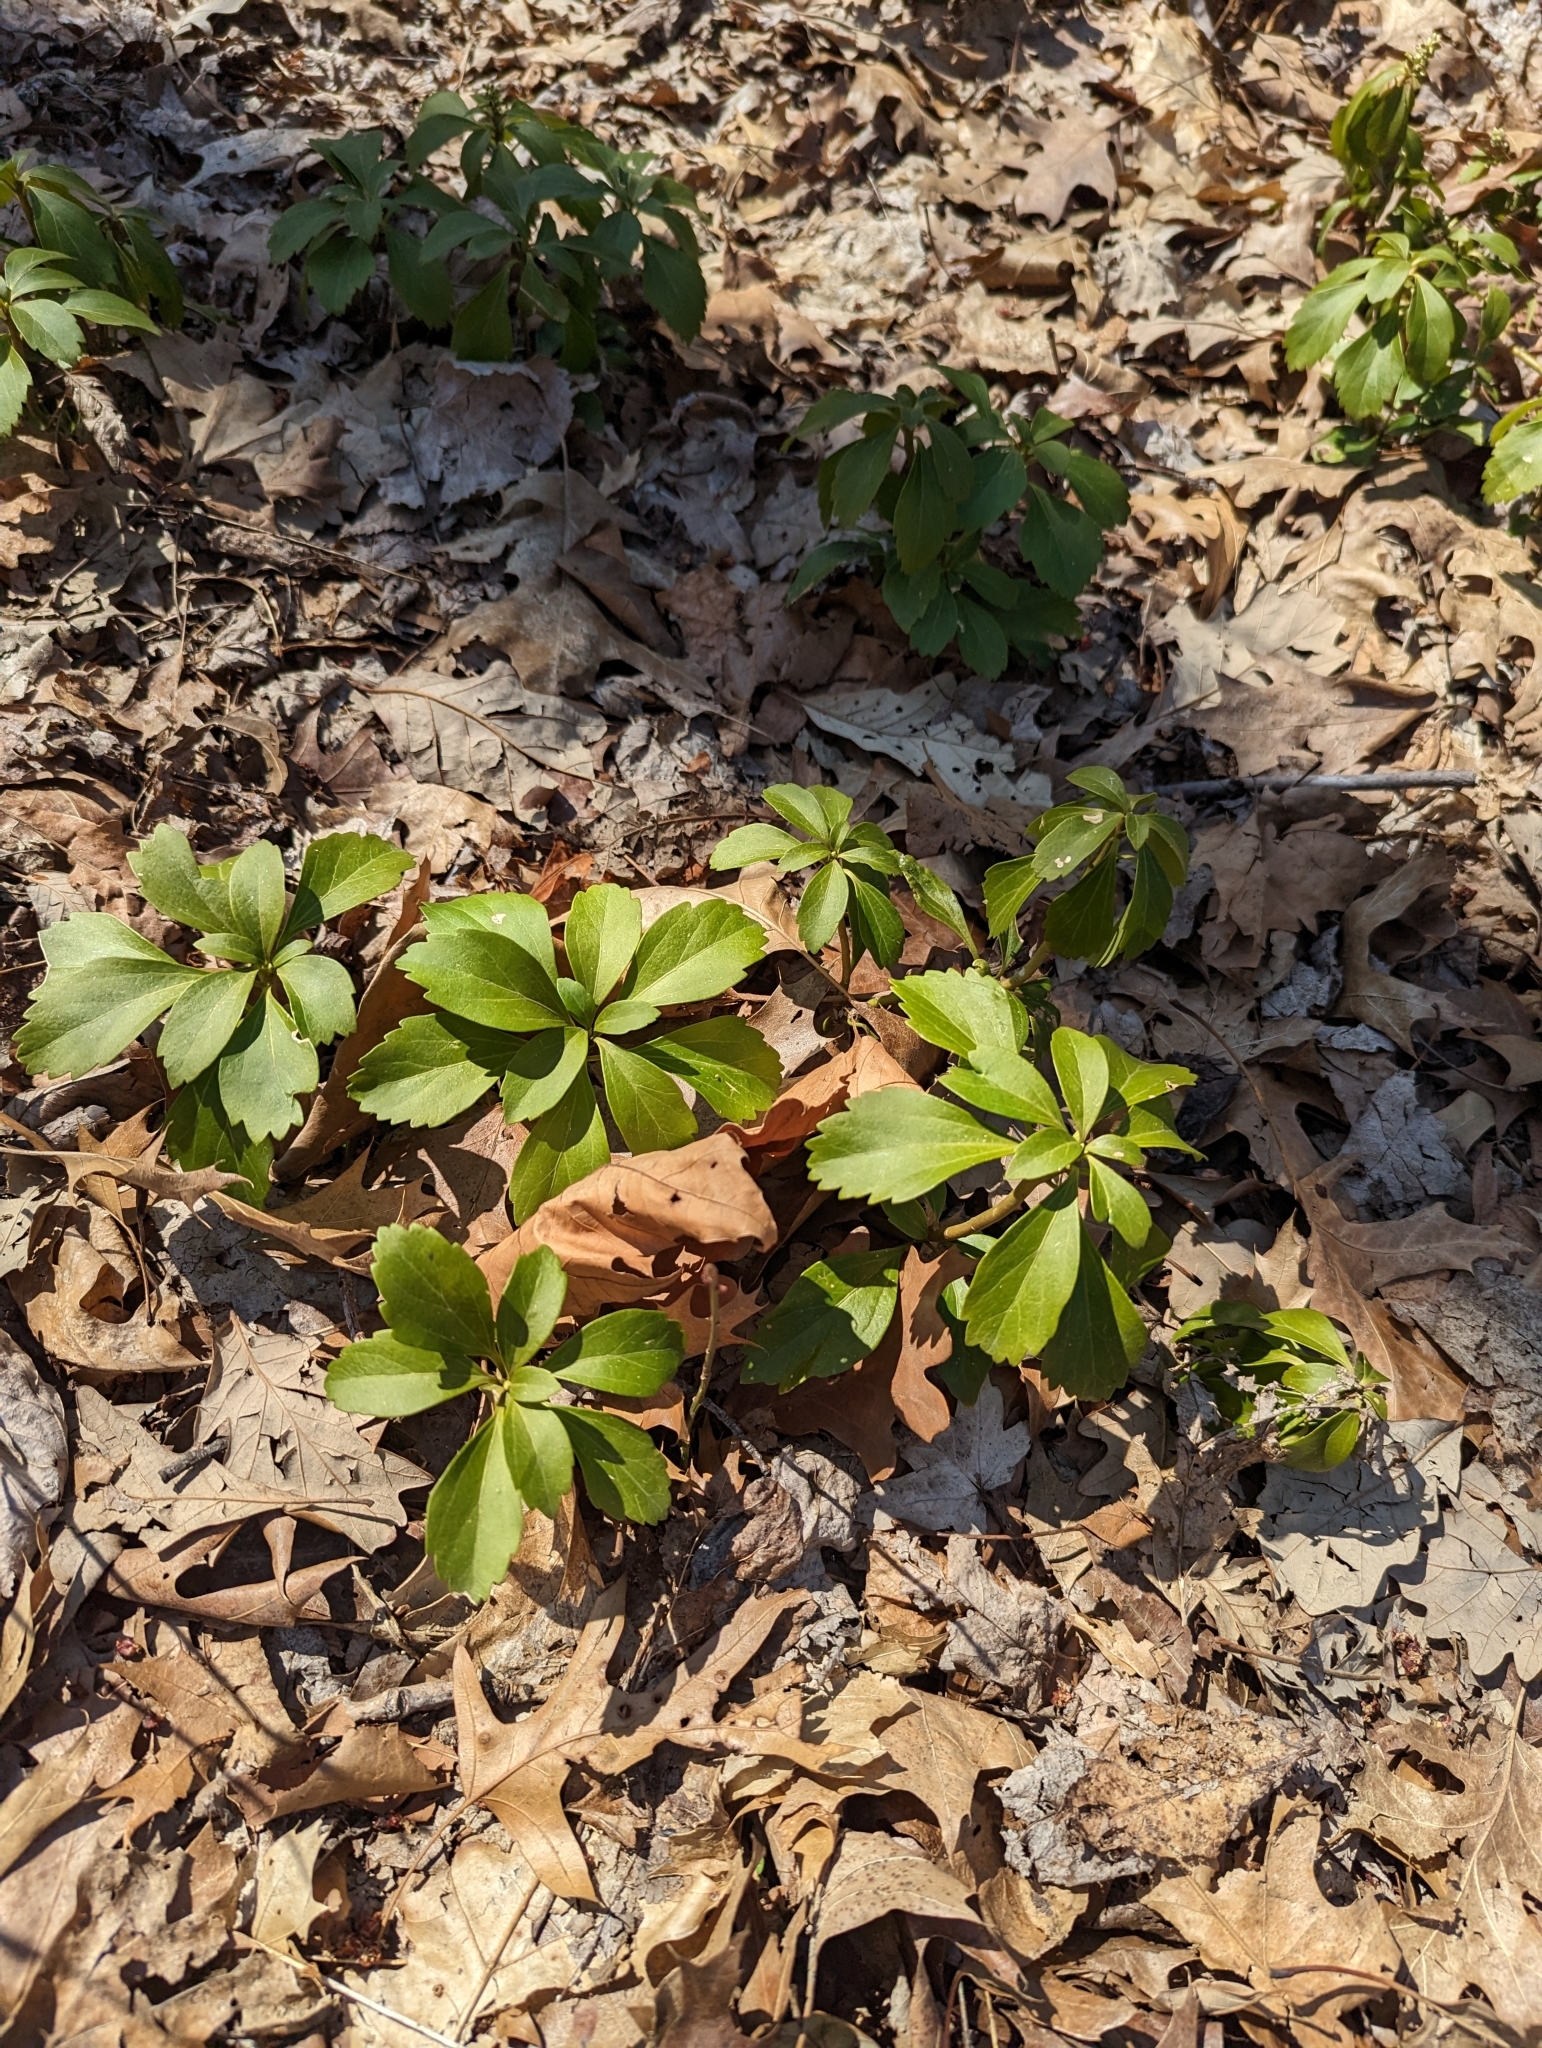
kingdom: Plantae
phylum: Tracheophyta
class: Magnoliopsida
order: Buxales
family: Buxaceae
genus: Pachysandra
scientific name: Pachysandra terminalis
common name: Japanese pachysandra
